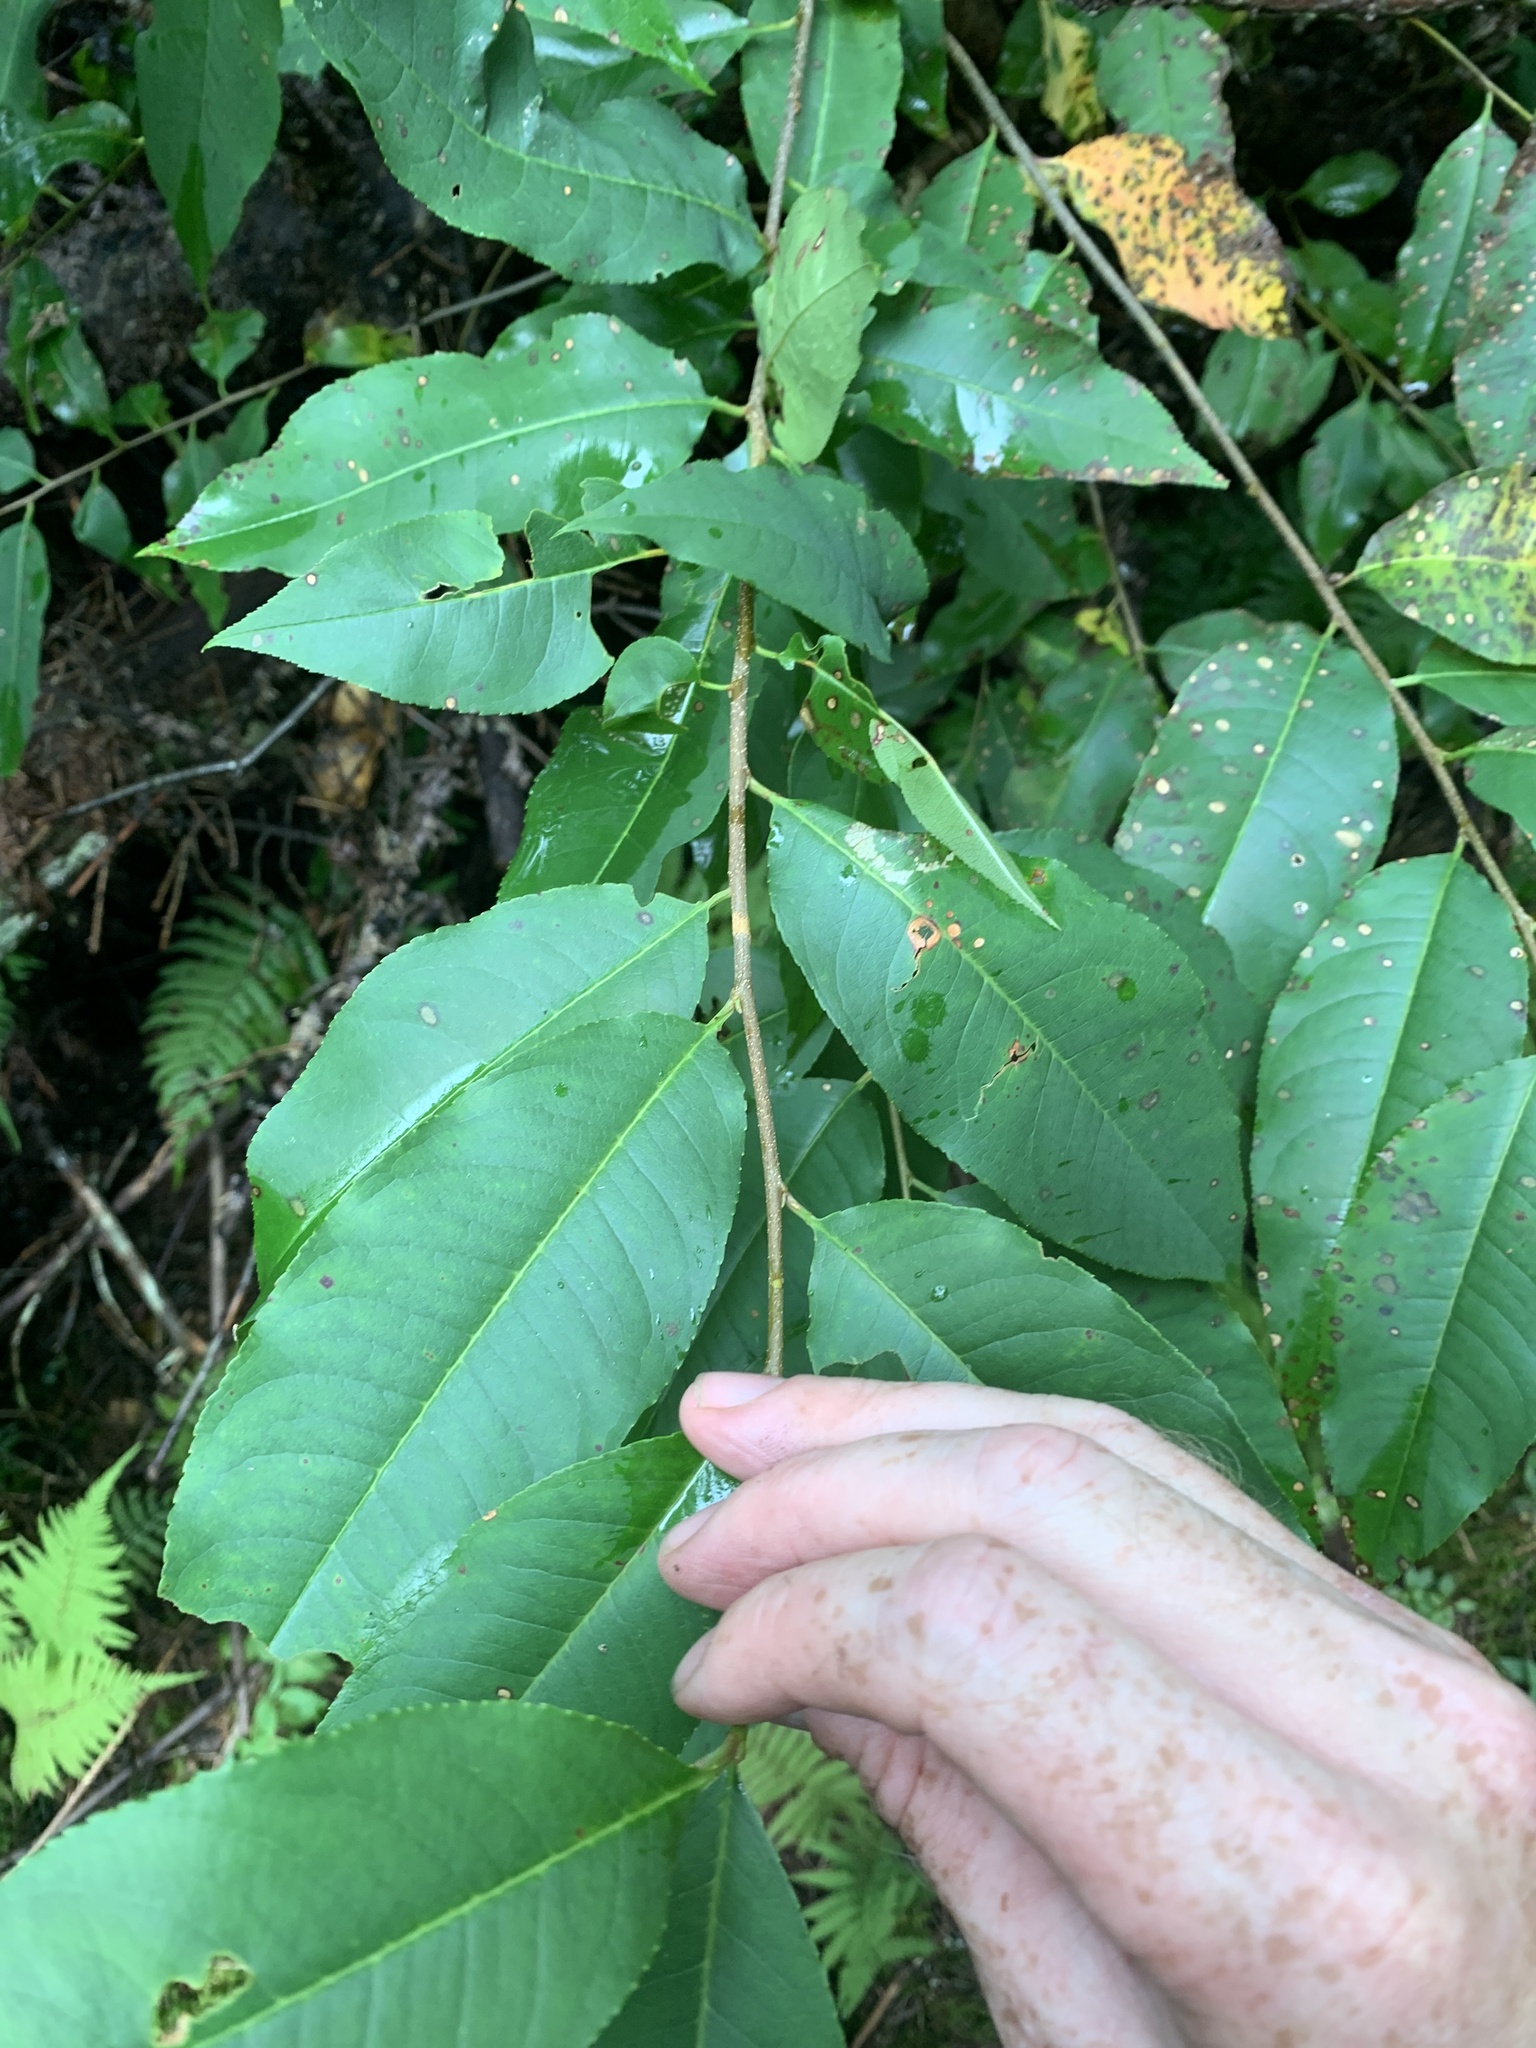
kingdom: Plantae
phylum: Tracheophyta
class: Magnoliopsida
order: Rosales
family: Rosaceae
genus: Prunus
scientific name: Prunus serotina
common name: Black cherry
